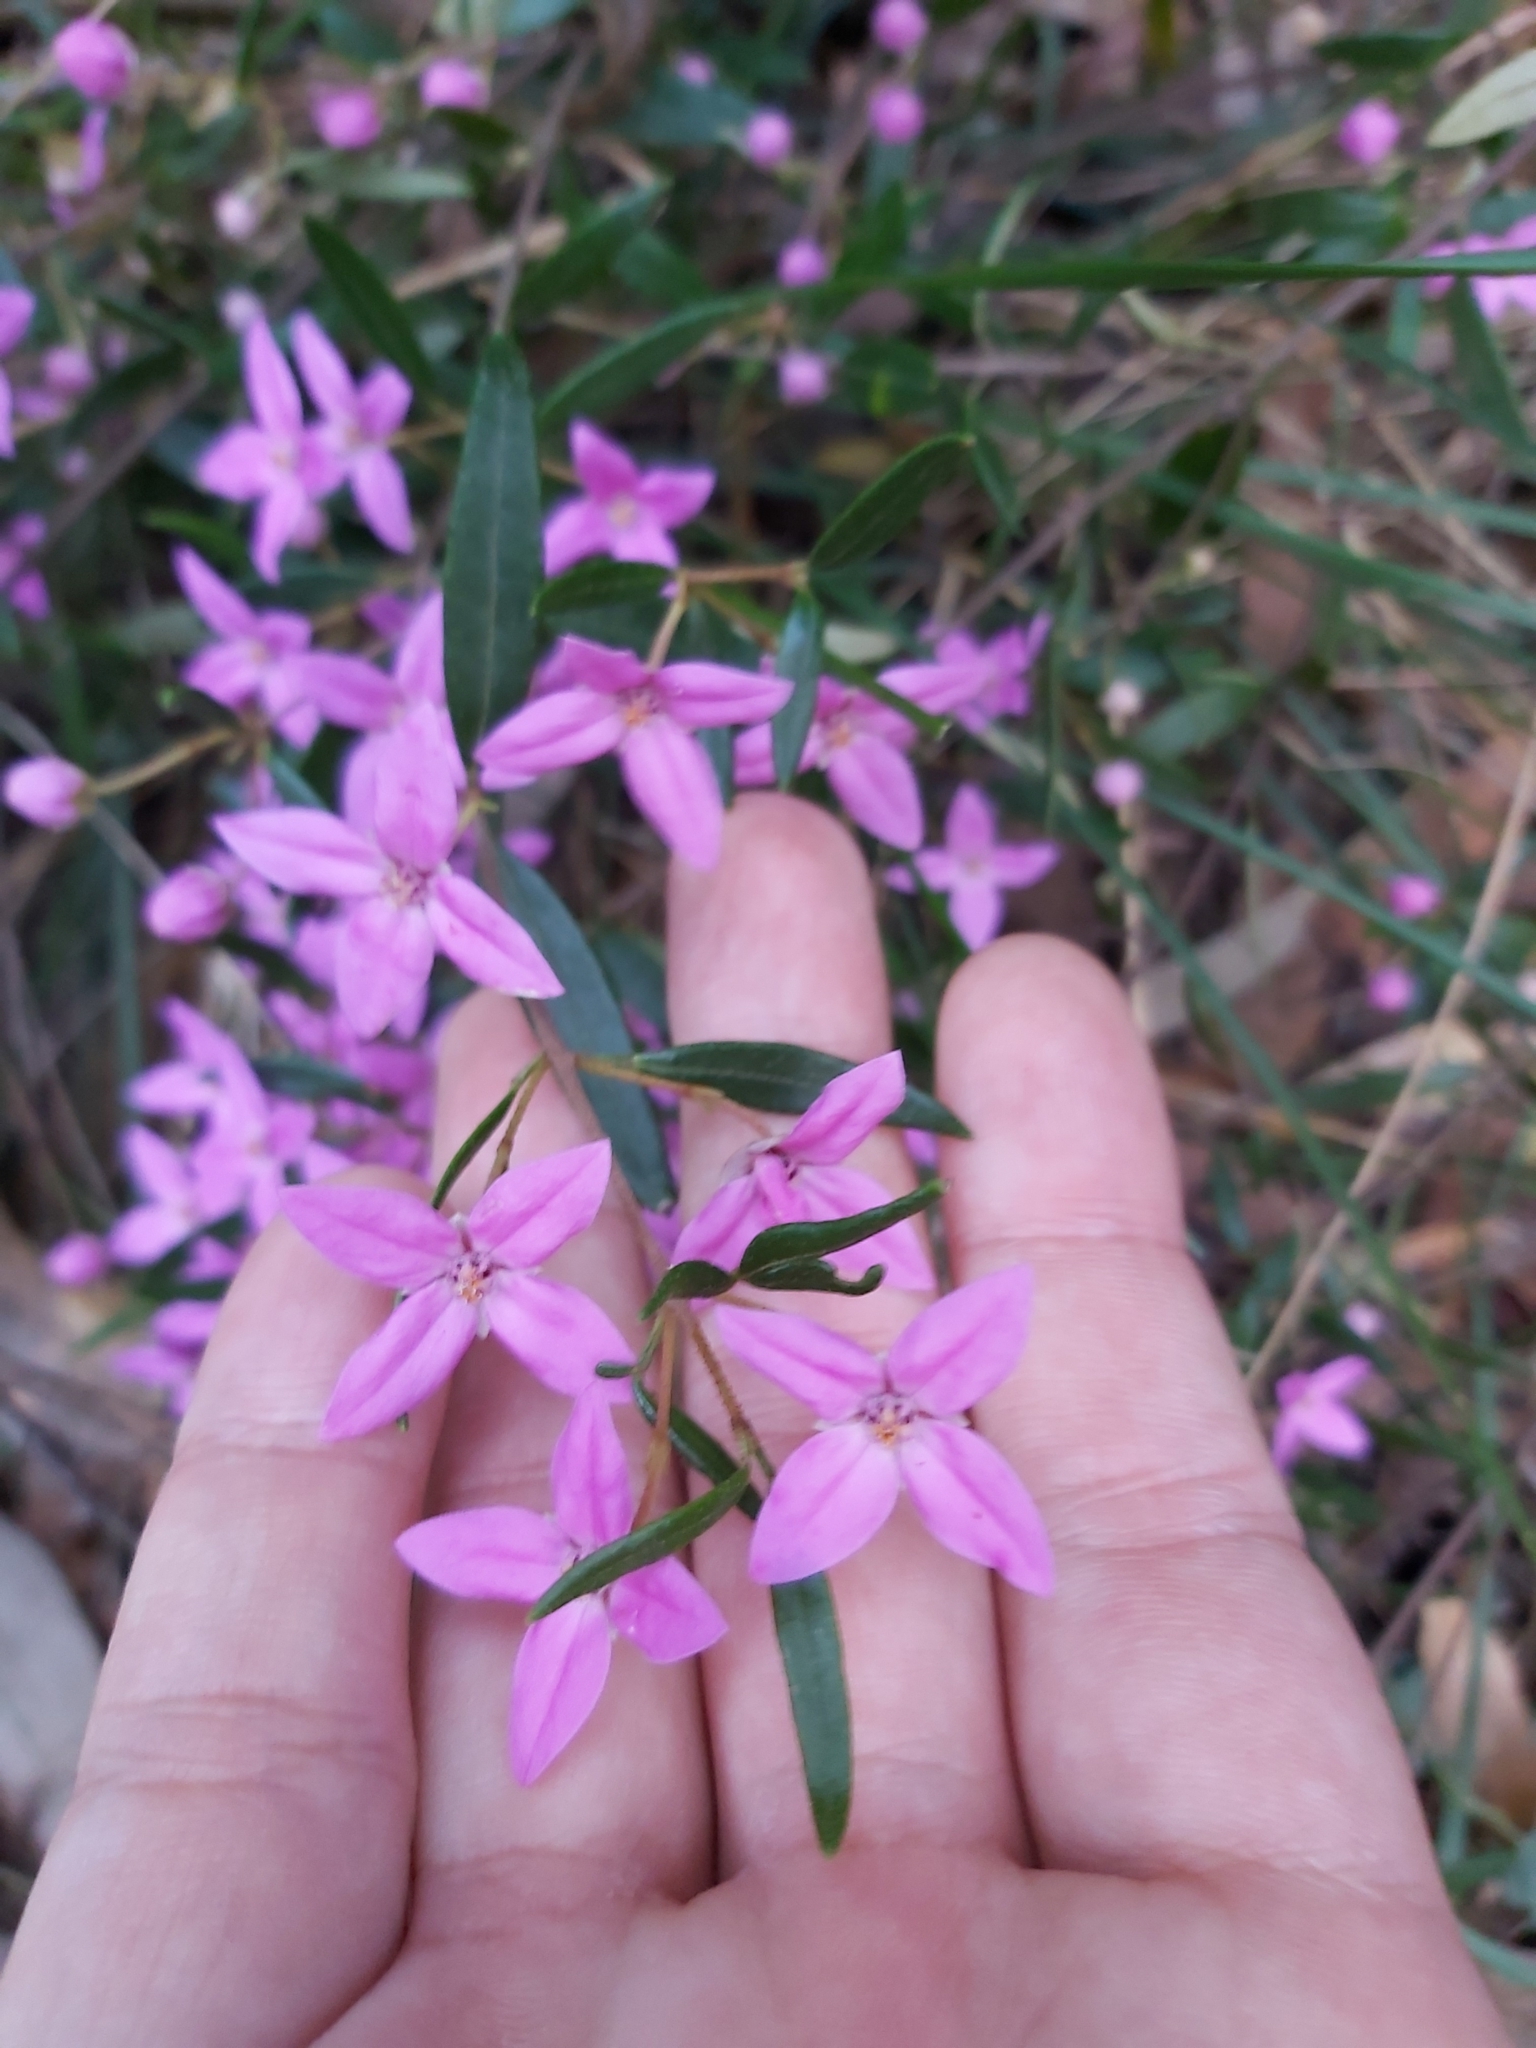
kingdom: Plantae
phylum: Tracheophyta
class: Magnoliopsida
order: Sapindales
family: Rutaceae
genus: Boronia
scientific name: Boronia ledifolia
